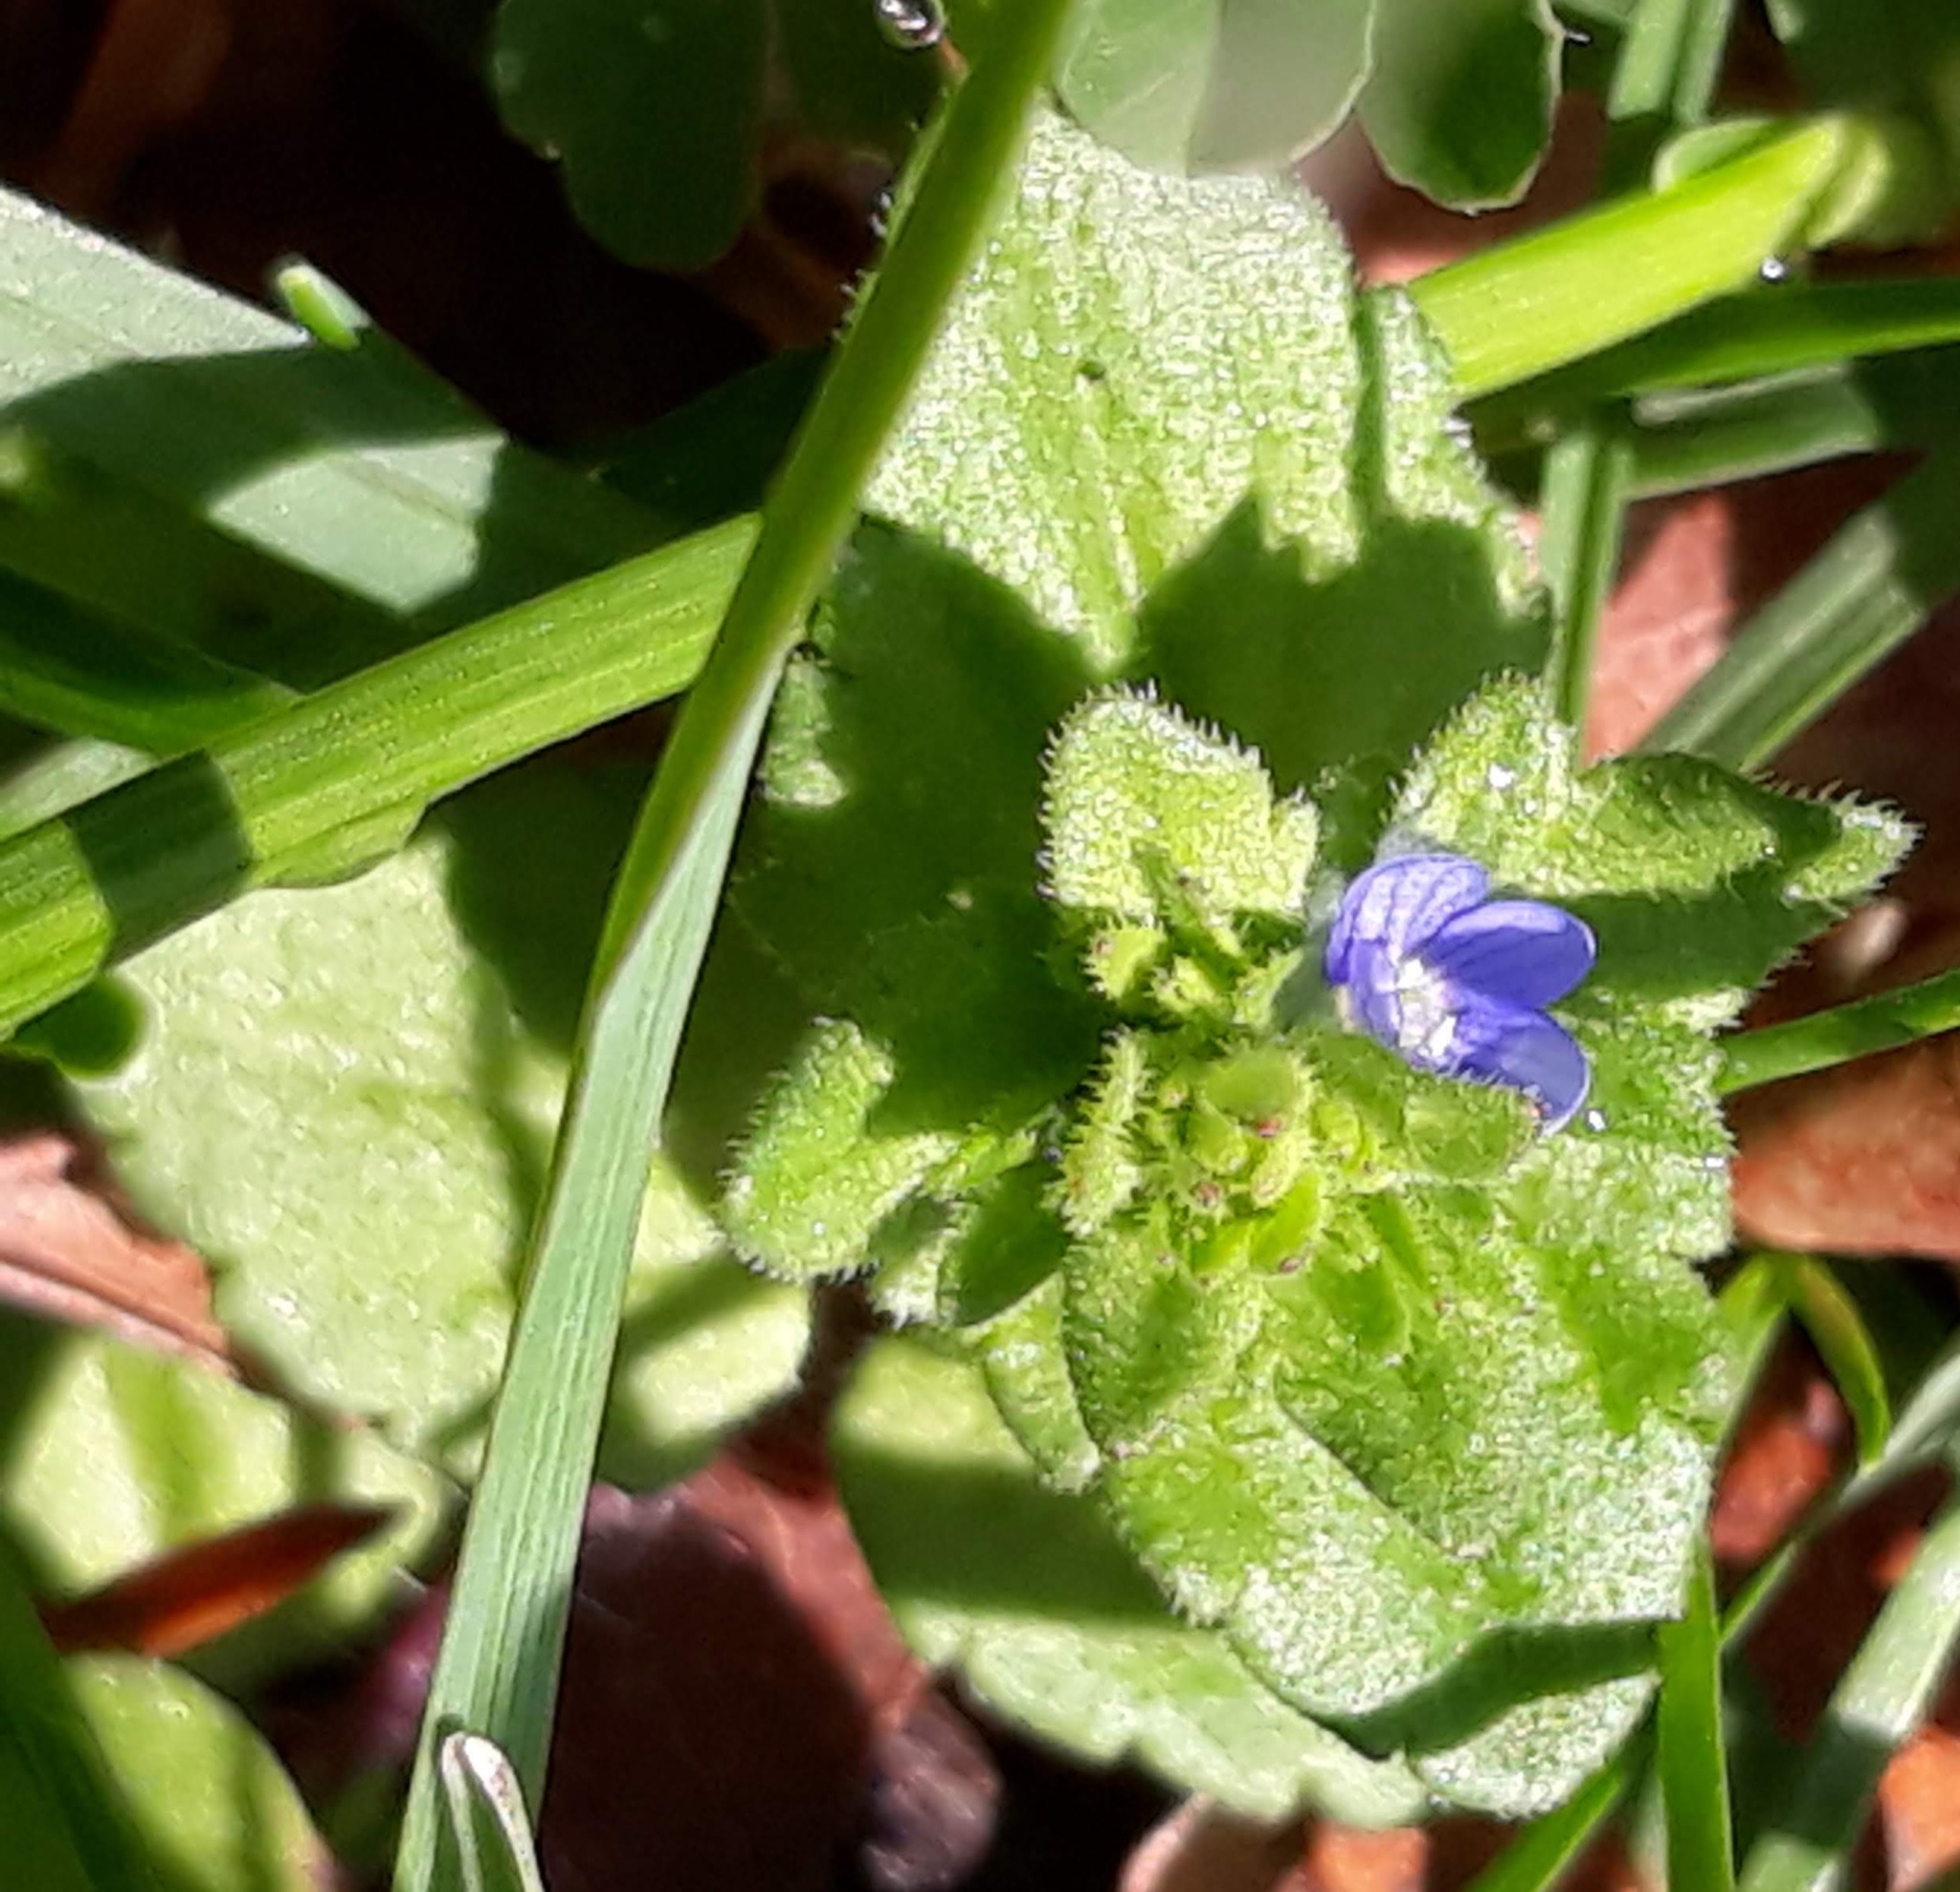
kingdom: Plantae
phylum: Tracheophyta
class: Magnoliopsida
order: Lamiales
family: Plantaginaceae
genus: Veronica
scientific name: Veronica arvensis
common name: Corn speedwell
